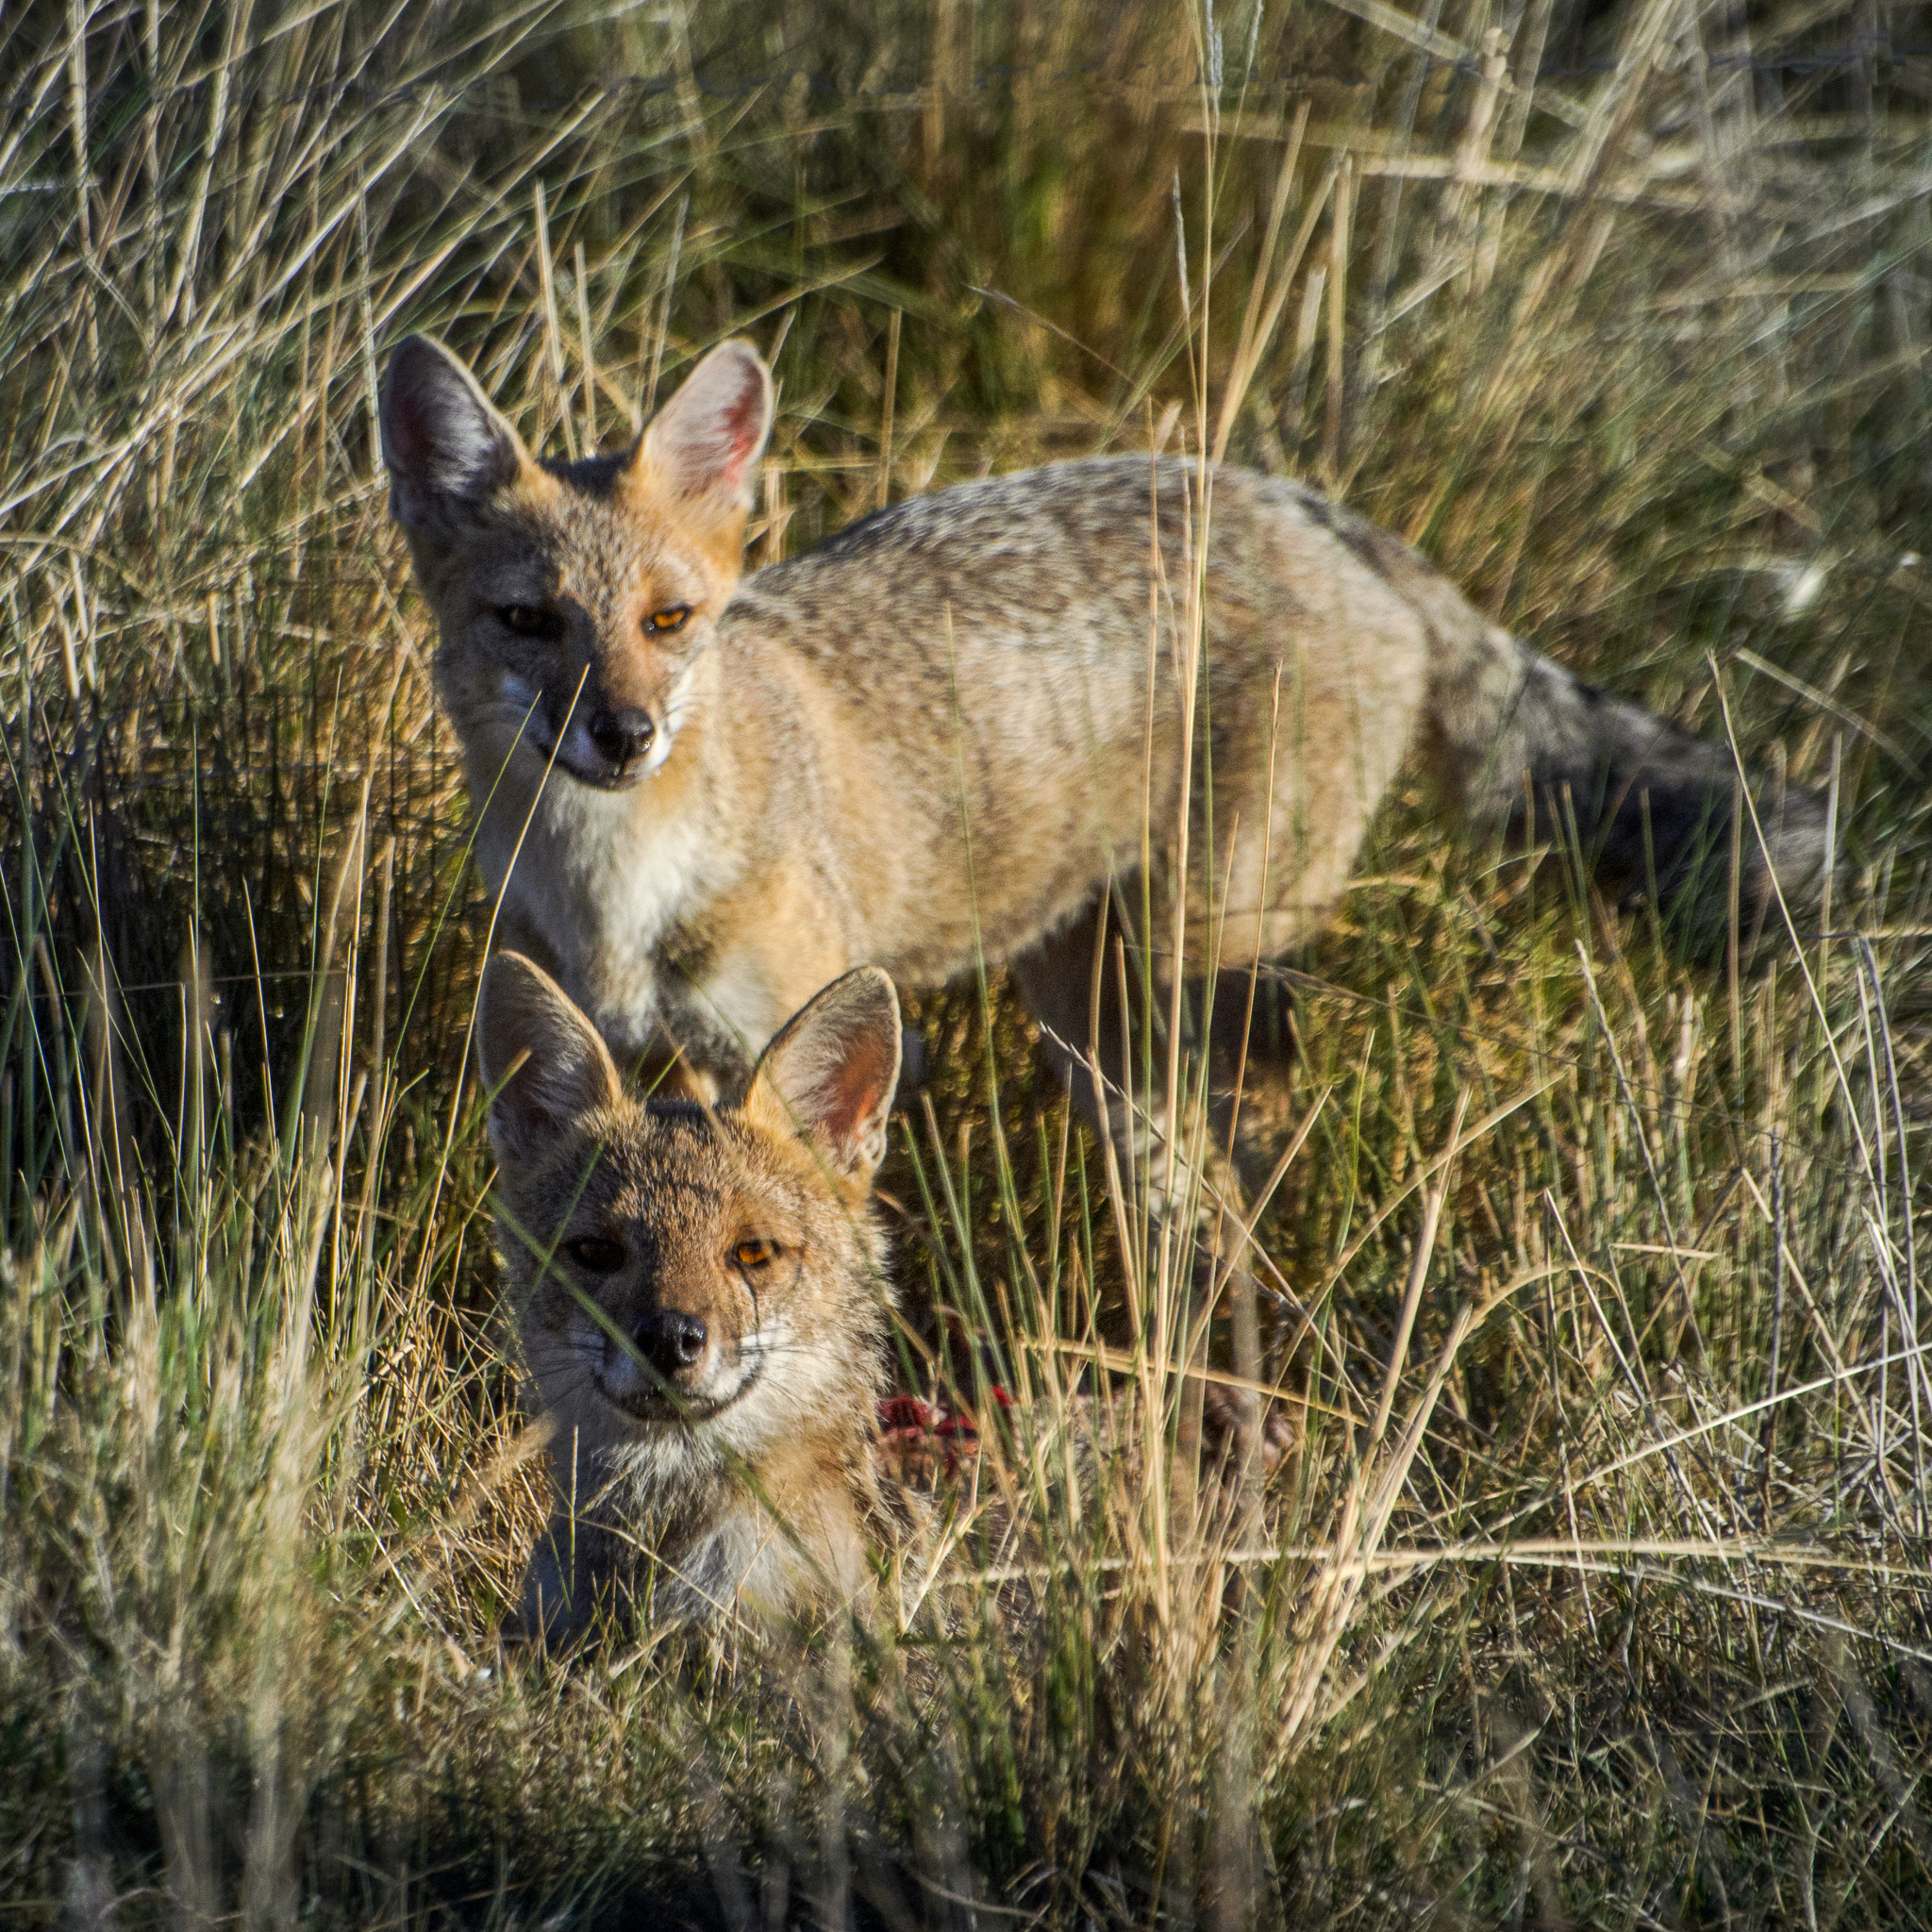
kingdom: Animalia
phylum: Chordata
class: Mammalia
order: Carnivora
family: Canidae
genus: Lycalopex
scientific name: Lycalopex gymnocercus
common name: Pampas fox
